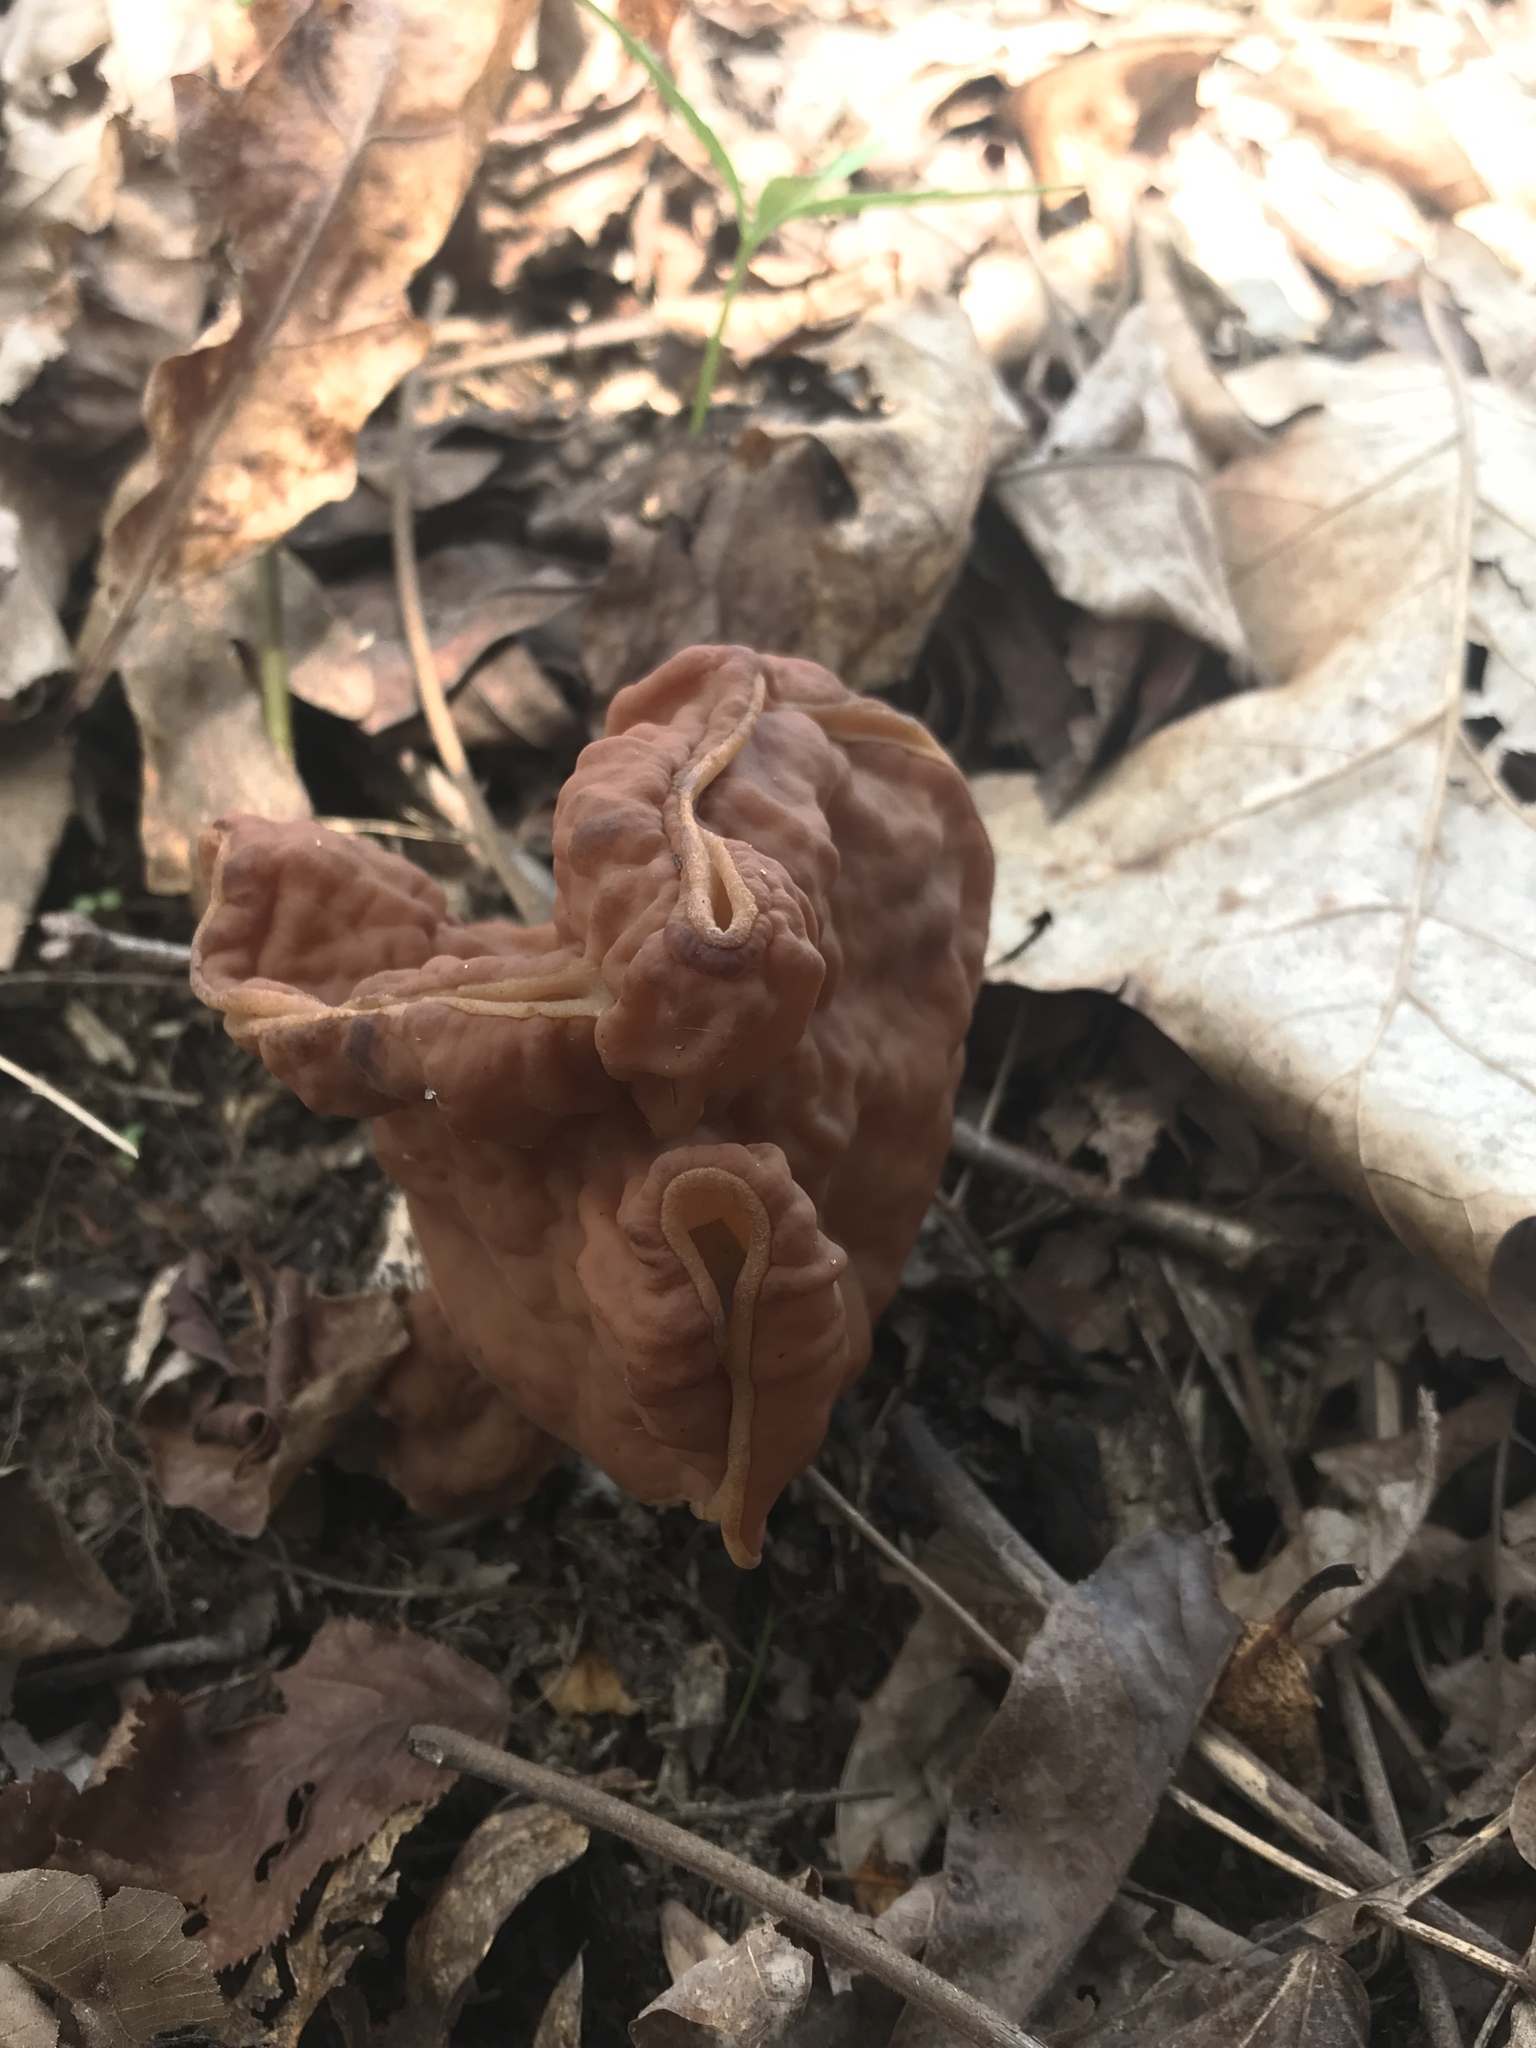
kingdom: Fungi
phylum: Ascomycota
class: Pezizomycetes
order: Pezizales
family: Discinaceae
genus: Discina
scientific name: Discina brunnea
